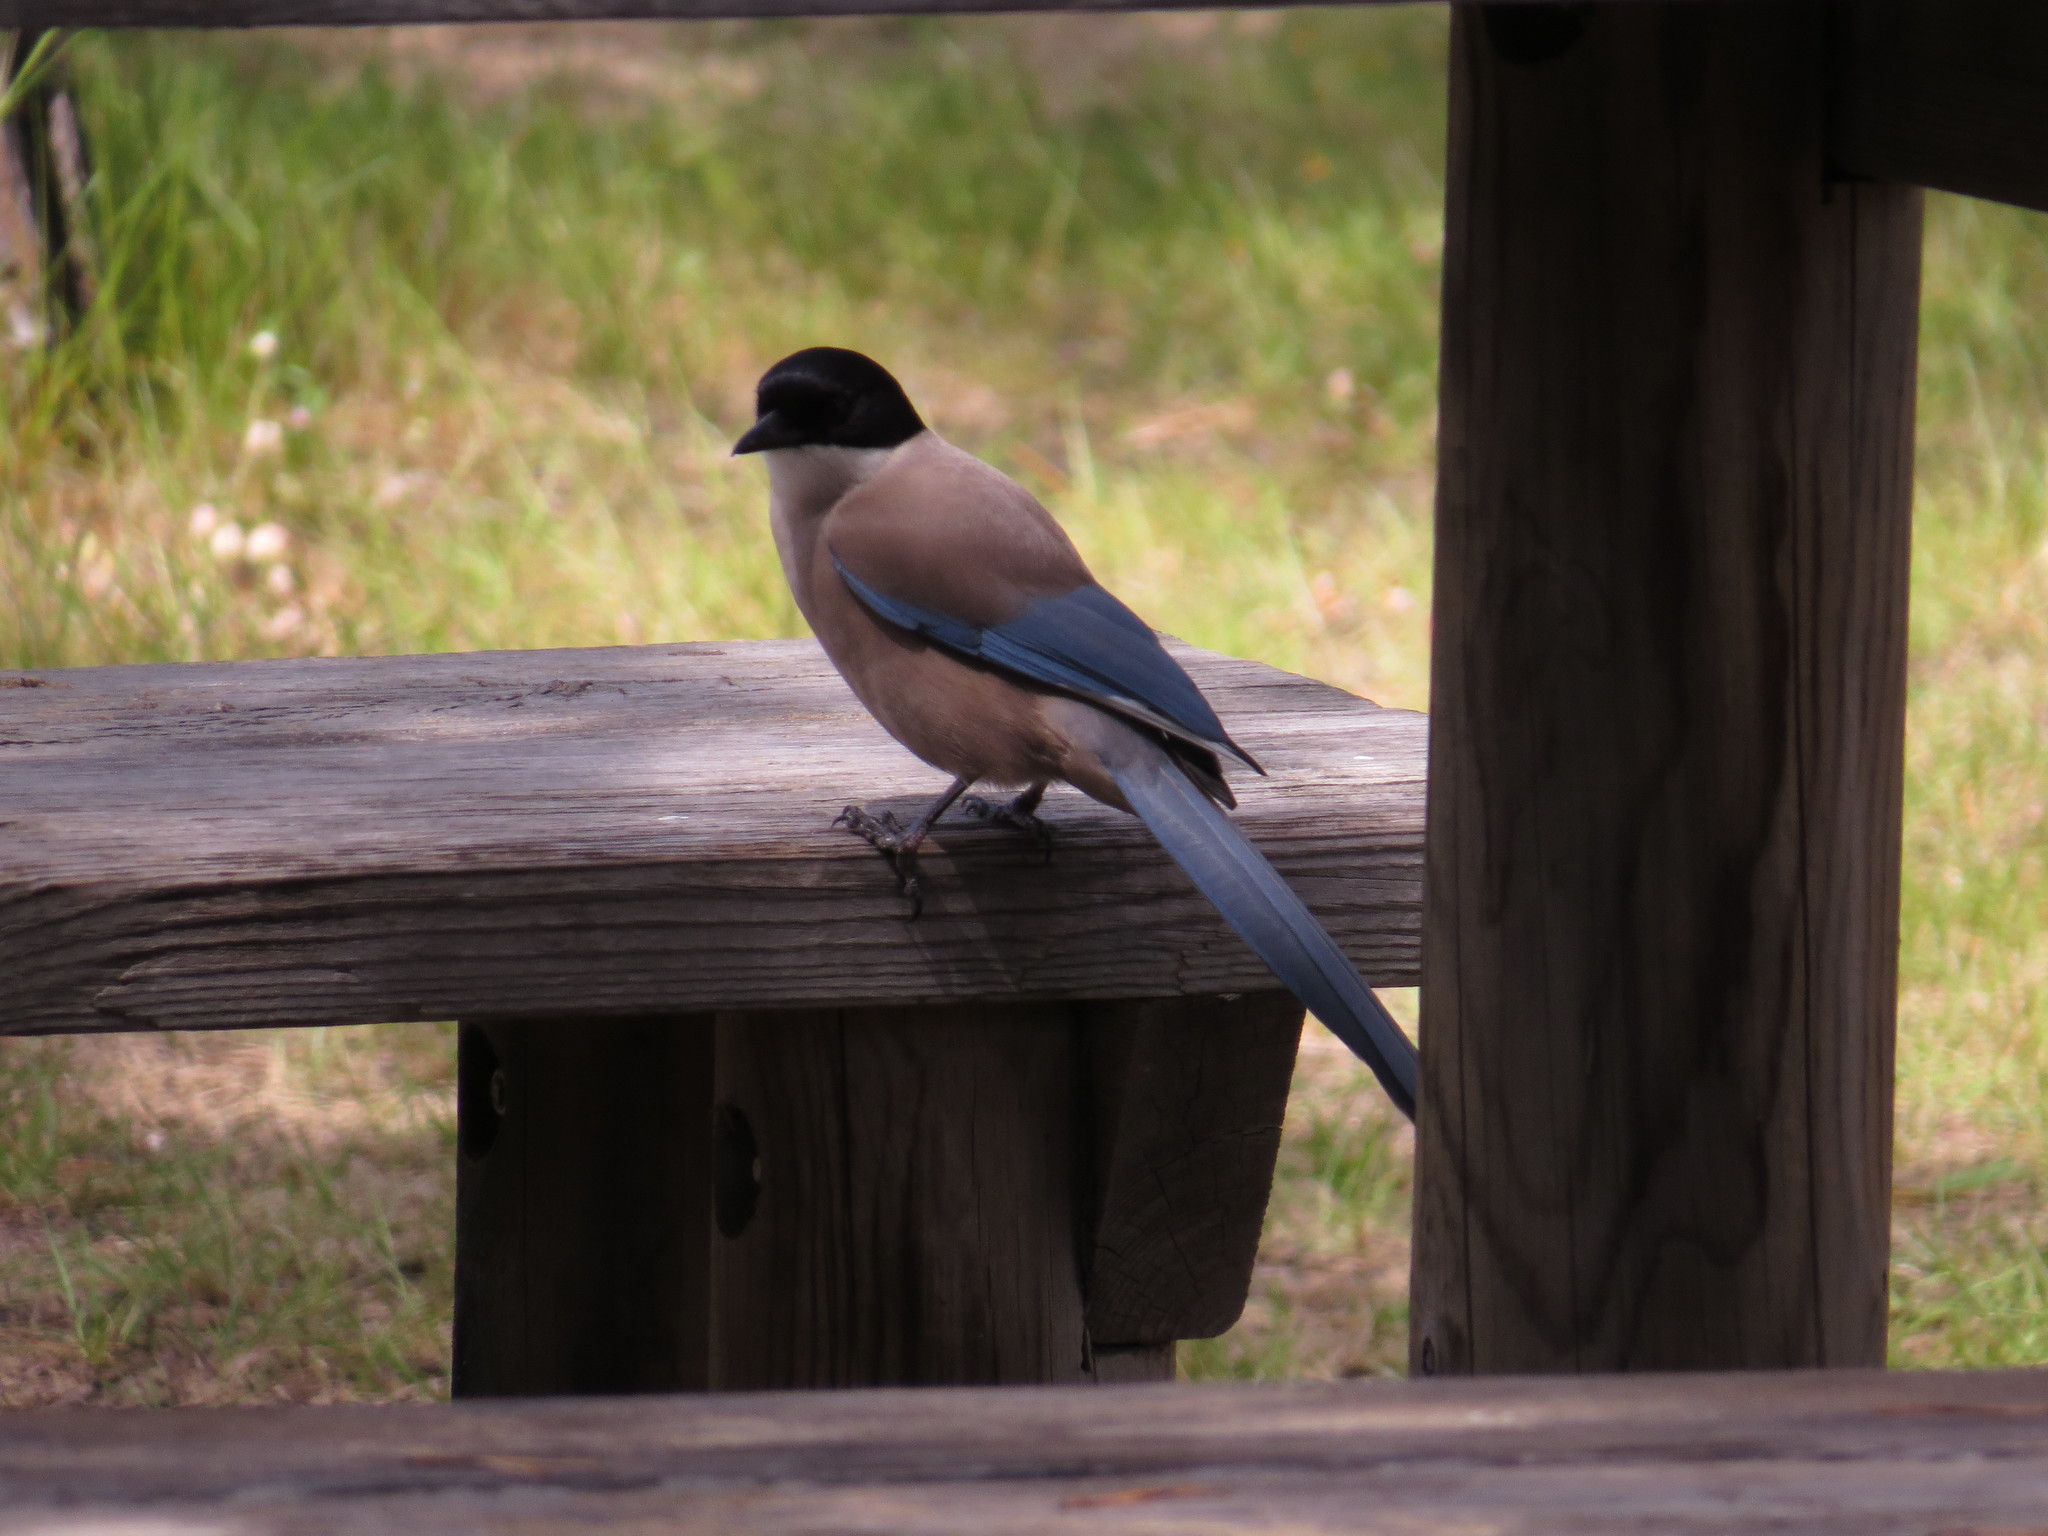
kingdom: Animalia
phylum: Chordata
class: Aves
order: Passeriformes
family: Corvidae
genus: Cyanopica
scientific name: Cyanopica cooki
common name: Iberian magpie
